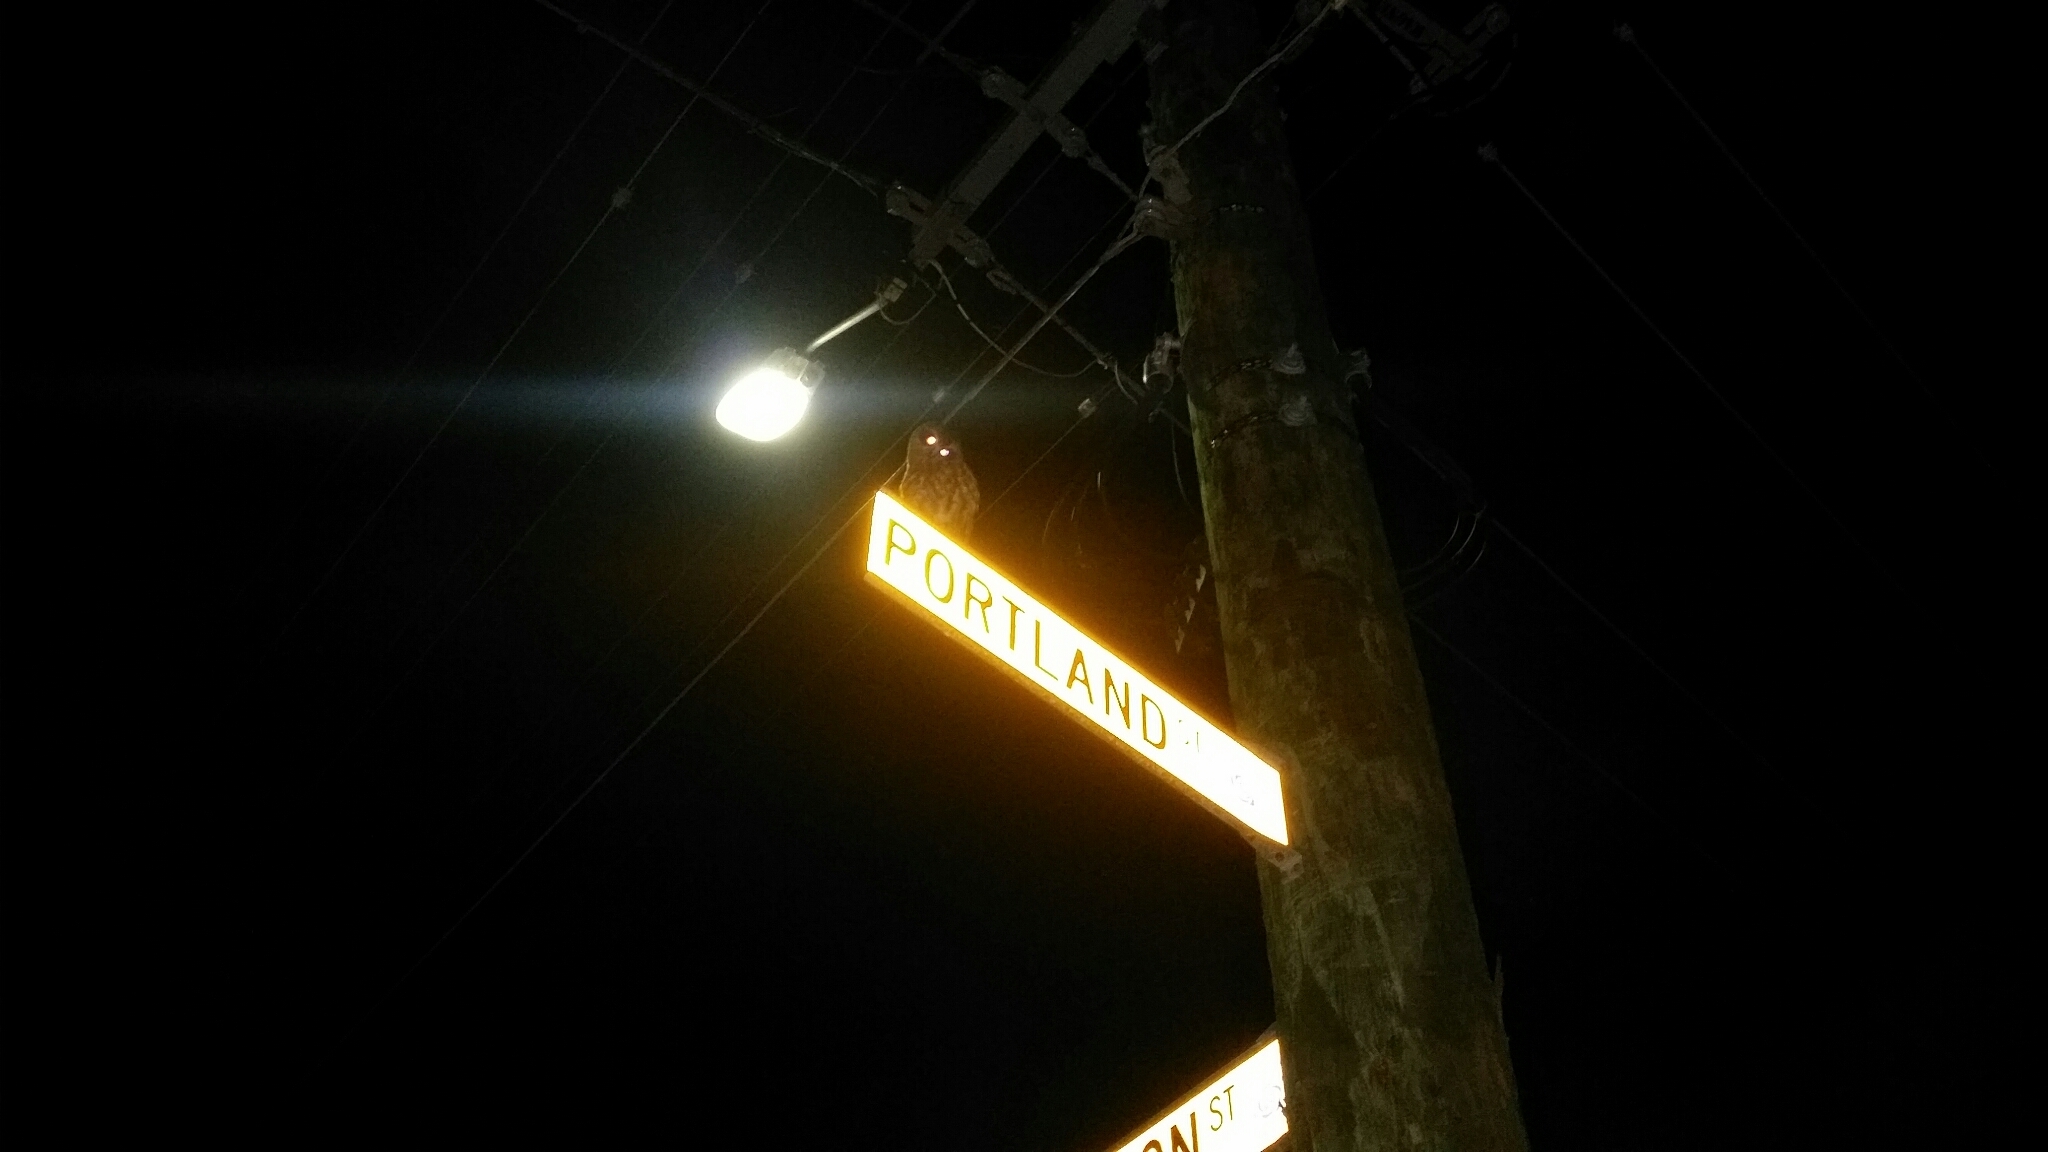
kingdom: Animalia
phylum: Chordata
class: Aves
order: Strigiformes
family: Strigidae
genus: Ninox
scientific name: Ninox boobook
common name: Southern boobook
